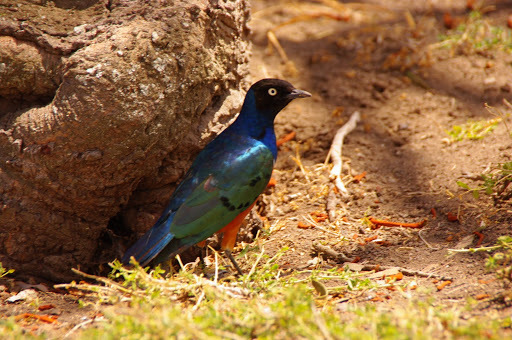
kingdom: Animalia
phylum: Chordata
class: Aves
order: Passeriformes
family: Sturnidae
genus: Lamprotornis
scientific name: Lamprotornis superbus
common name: Superb starling
